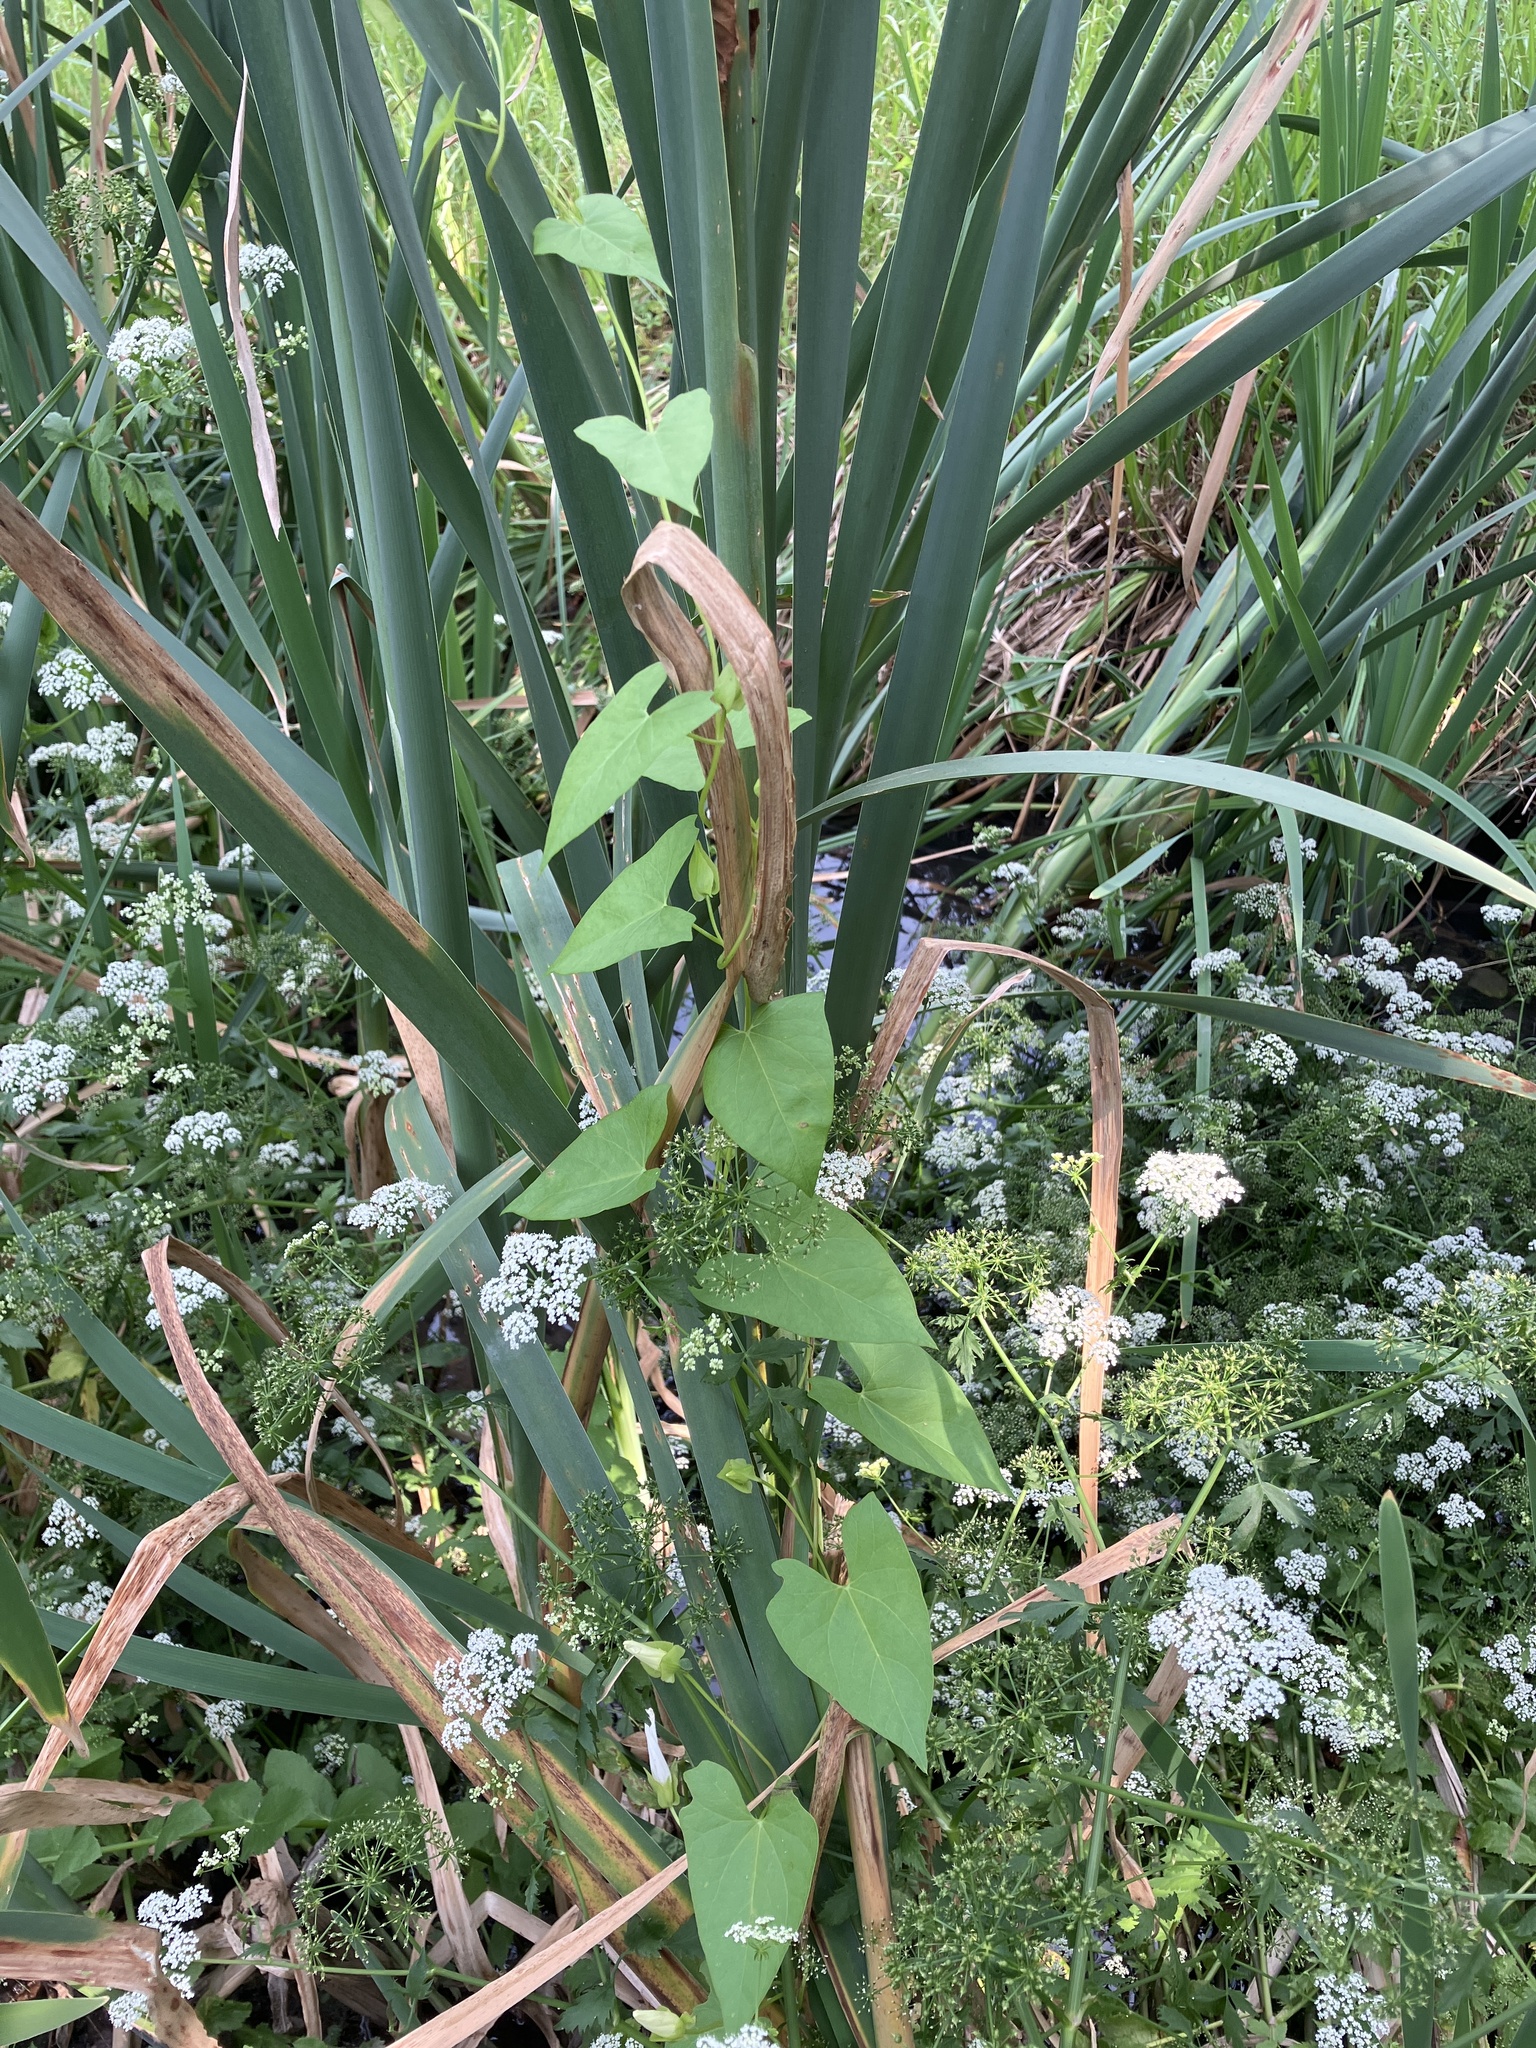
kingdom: Plantae
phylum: Tracheophyta
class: Magnoliopsida
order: Solanales
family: Convolvulaceae
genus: Calystegia
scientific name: Calystegia sepium
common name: Hedge bindweed
